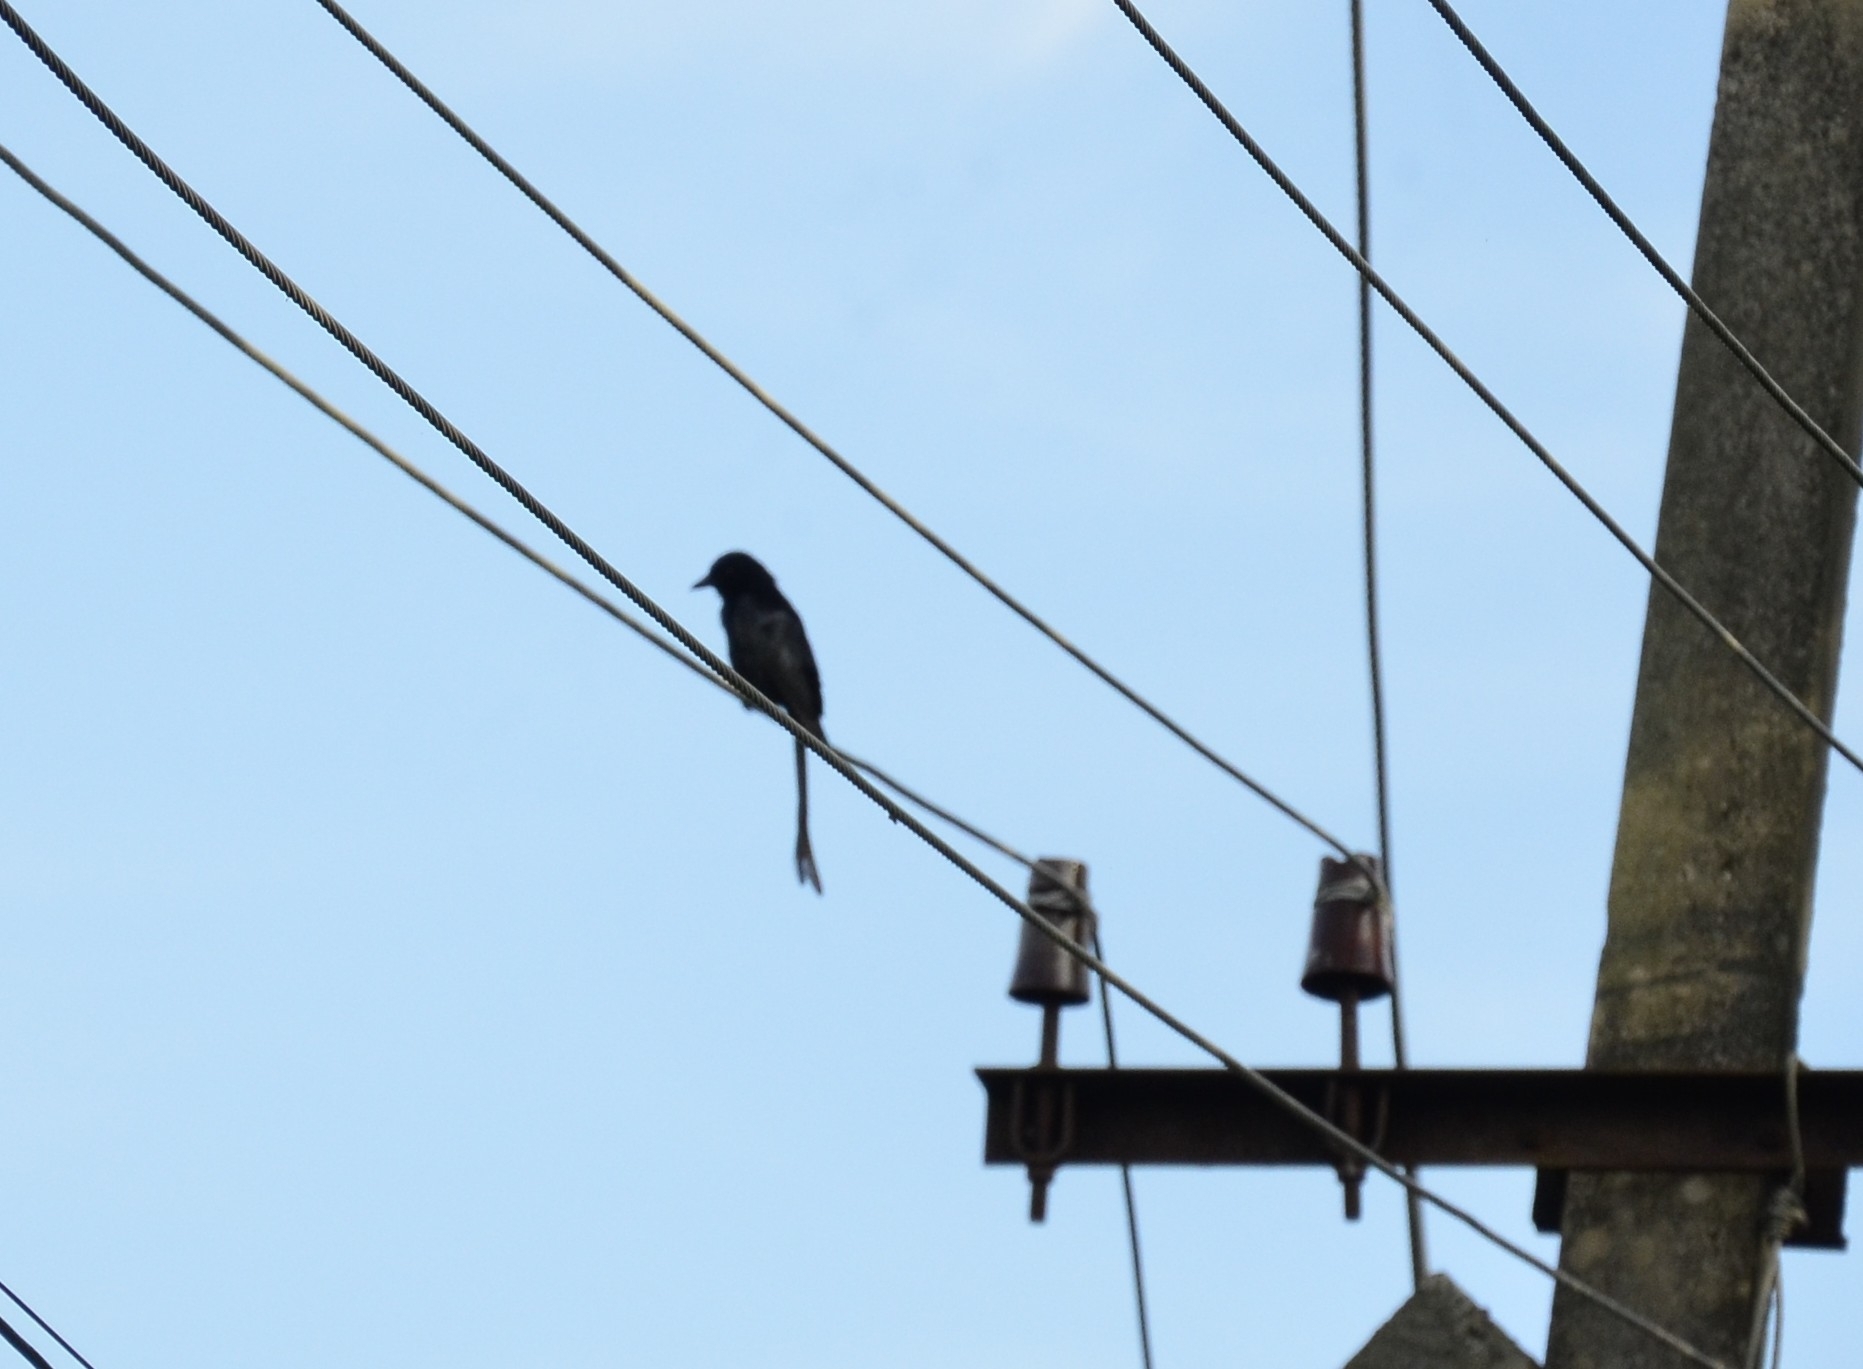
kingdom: Animalia
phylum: Chordata
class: Aves
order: Passeriformes
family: Dicruridae
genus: Dicrurus
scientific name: Dicrurus macrocercus
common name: Black drongo
